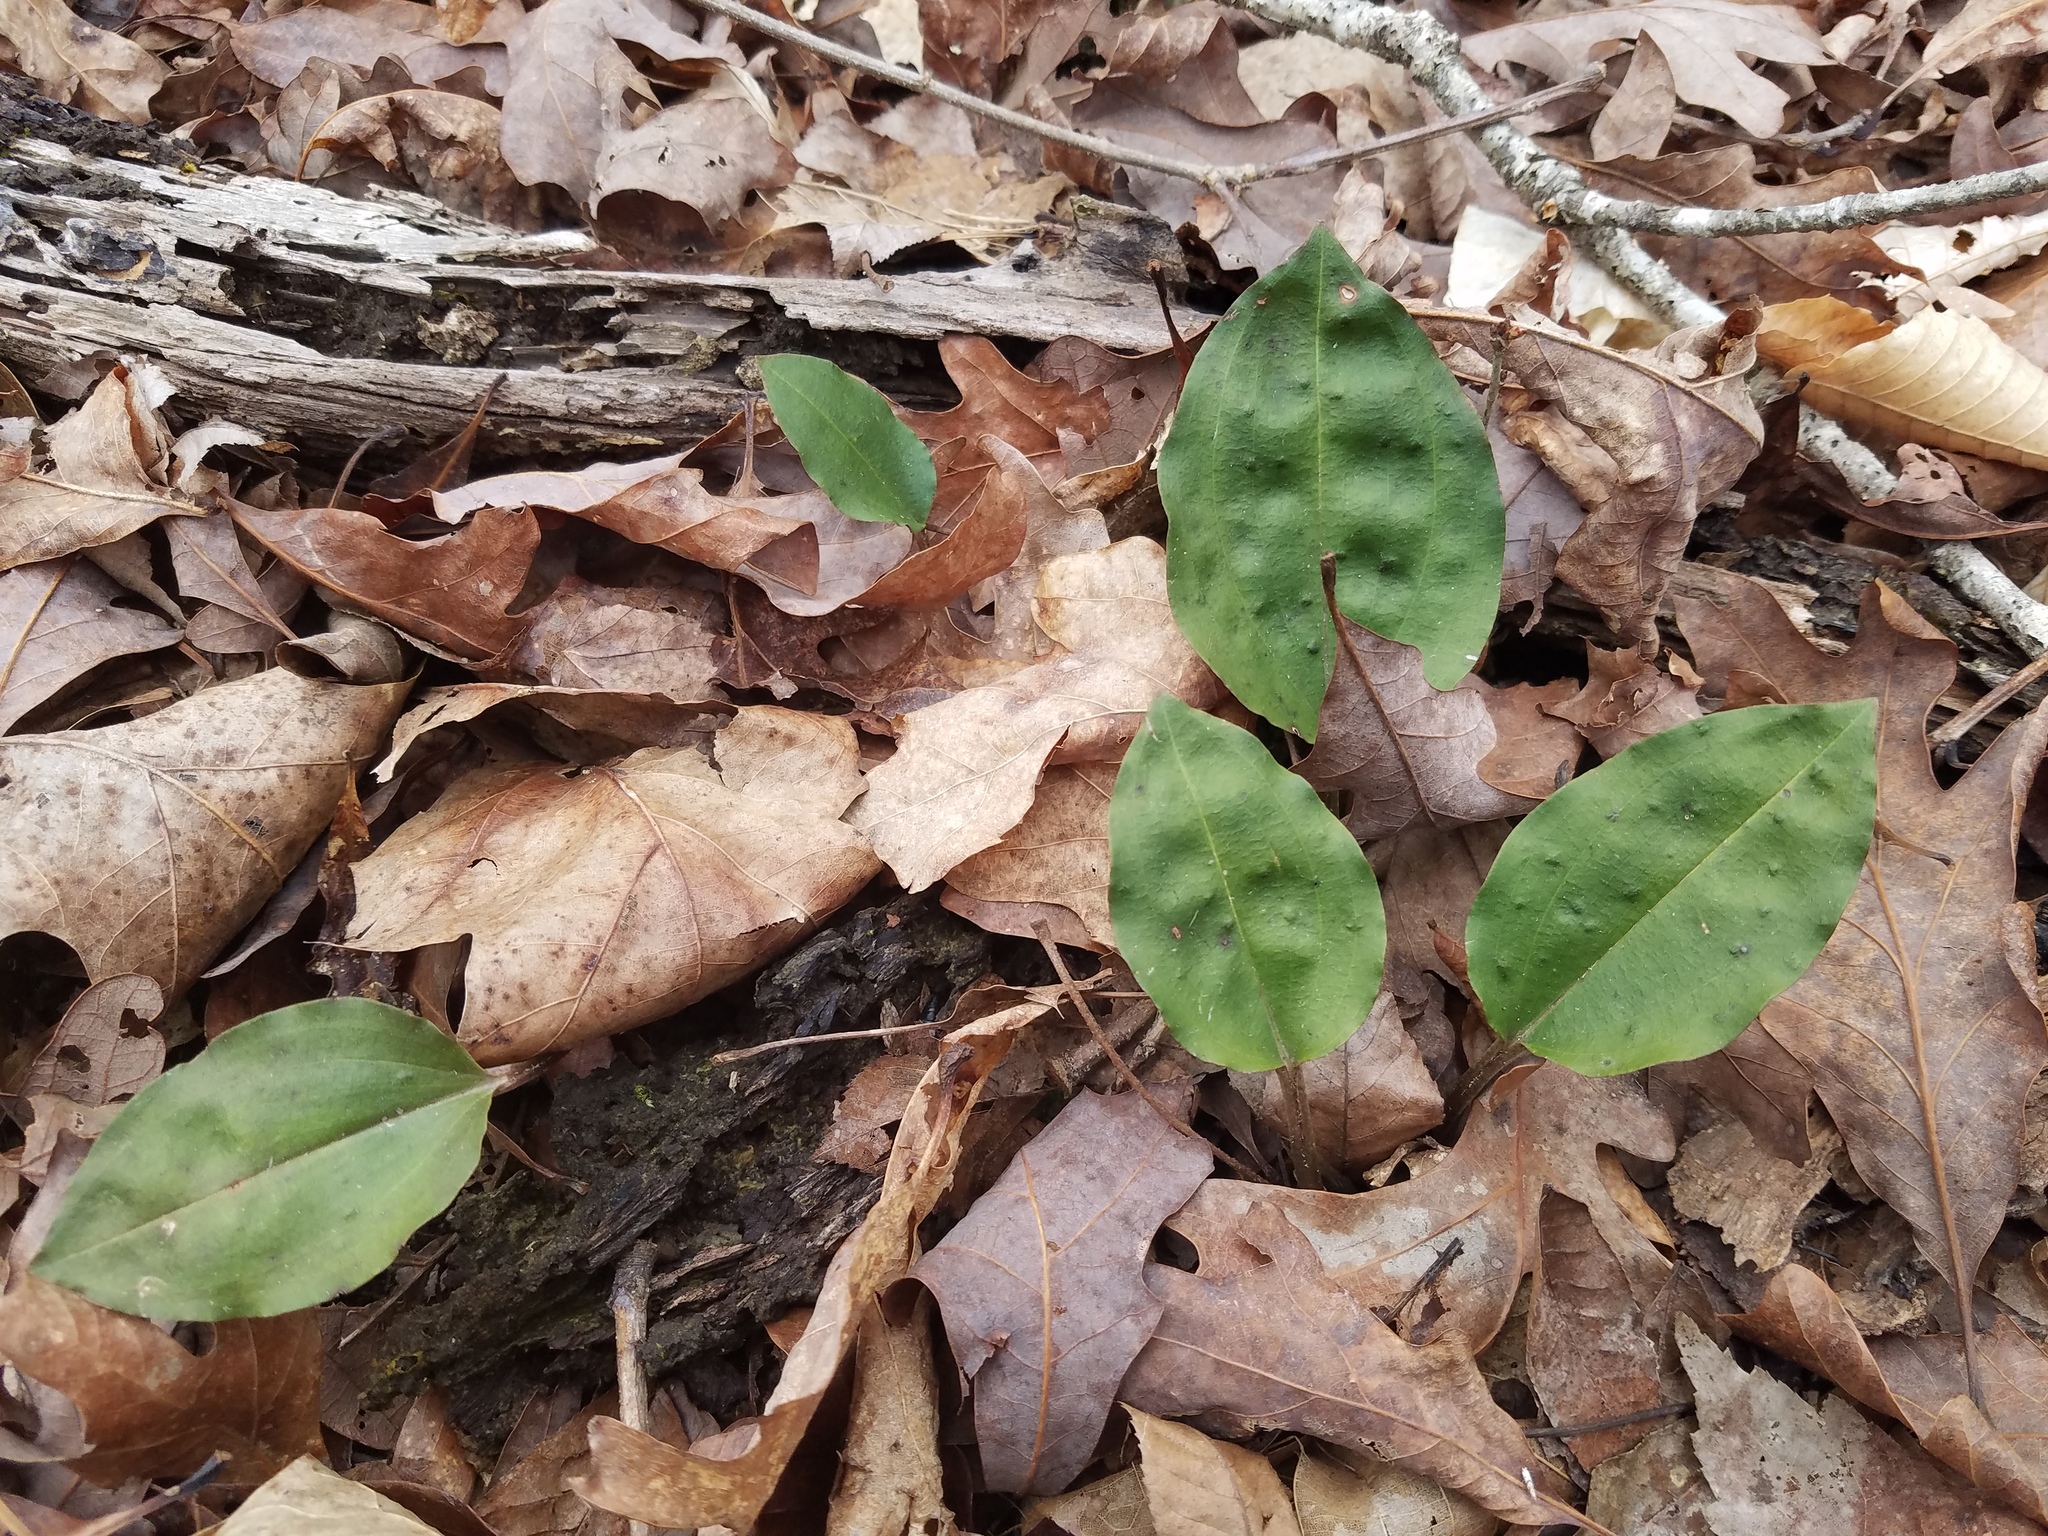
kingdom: Plantae
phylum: Tracheophyta
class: Liliopsida
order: Asparagales
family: Orchidaceae
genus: Tipularia
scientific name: Tipularia discolor
